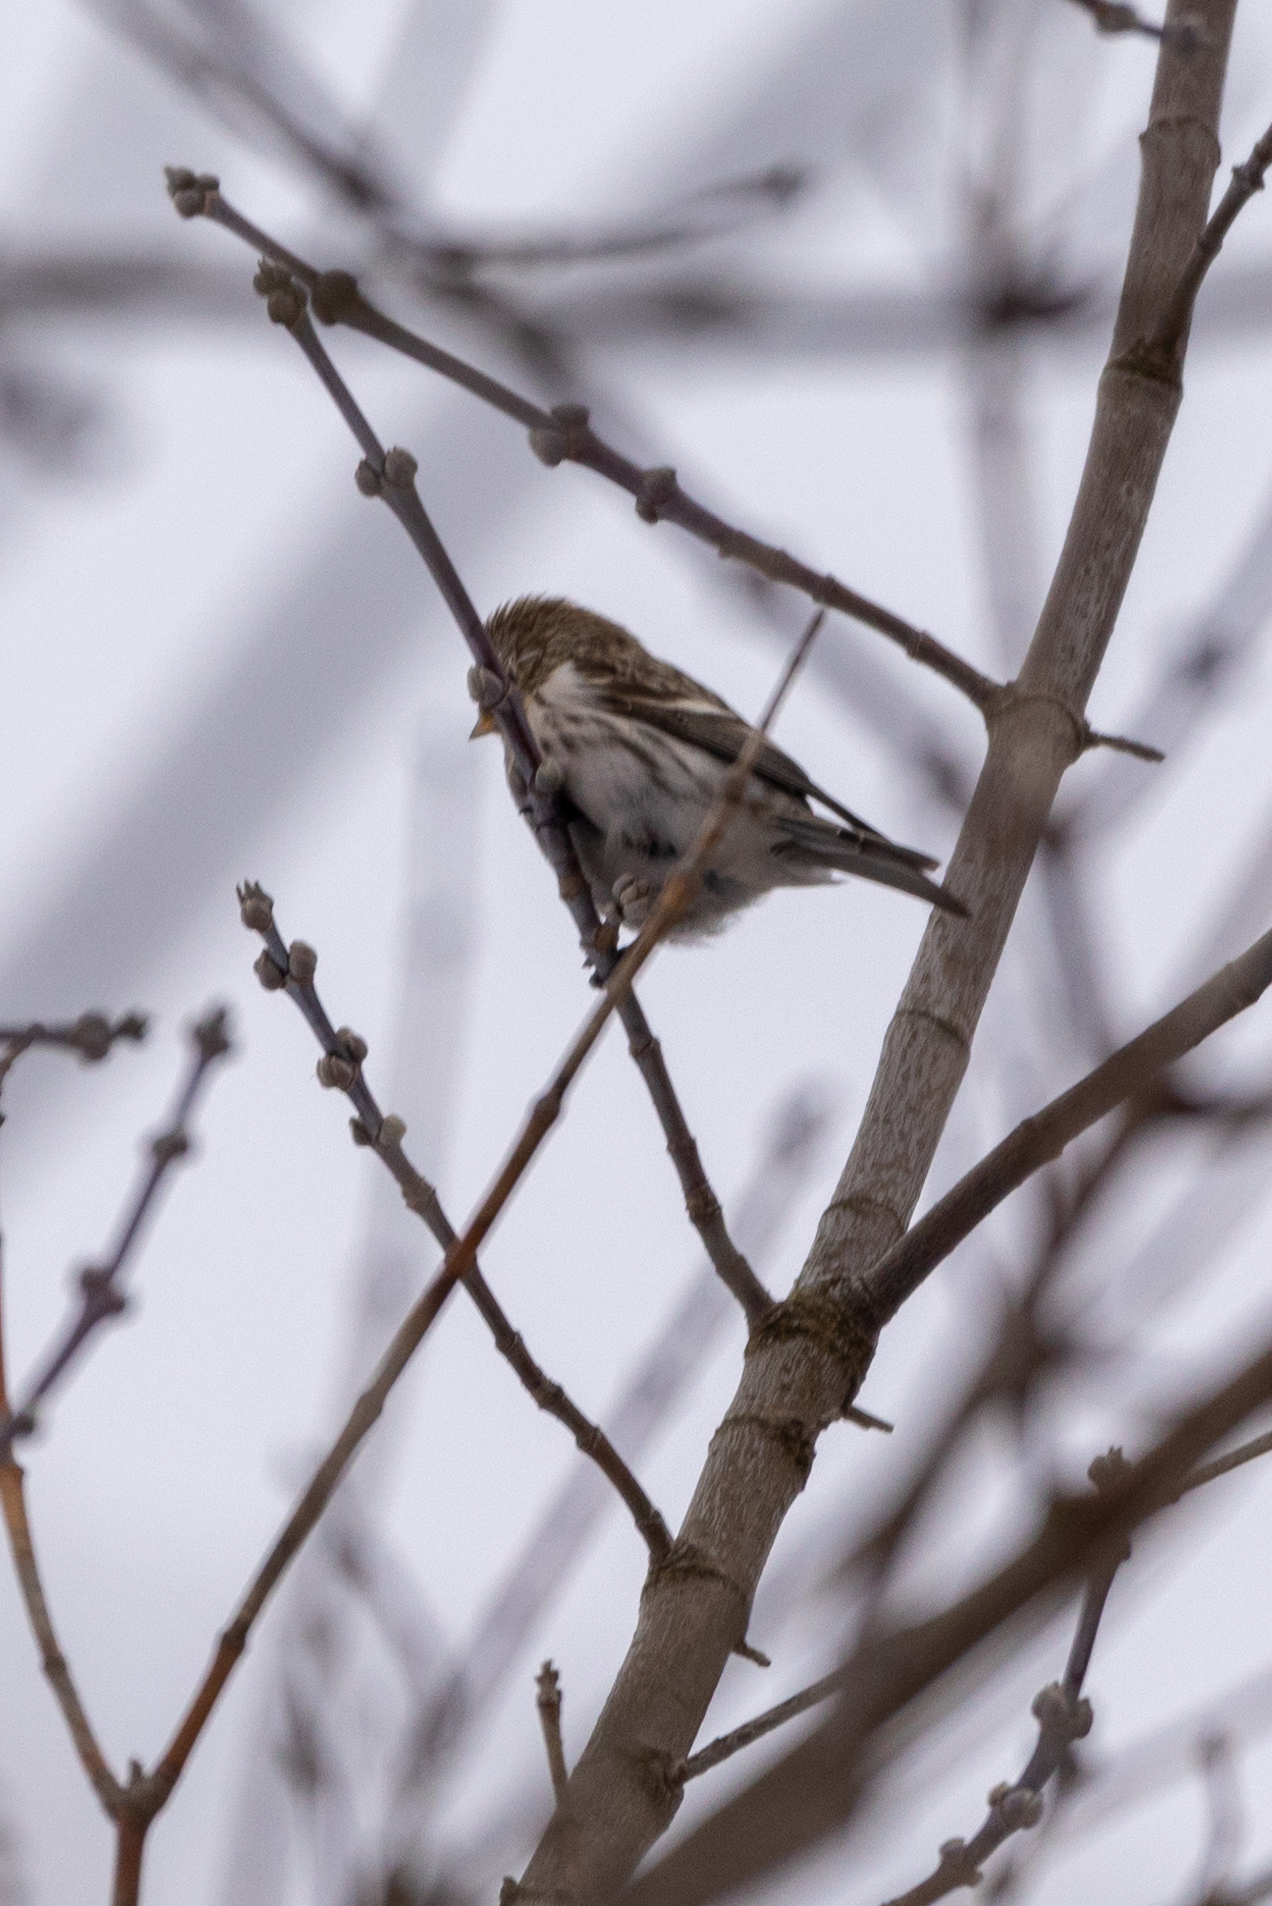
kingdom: Animalia
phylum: Chordata
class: Aves
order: Passeriformes
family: Fringillidae
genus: Acanthis
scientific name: Acanthis flammea
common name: Common redpoll
